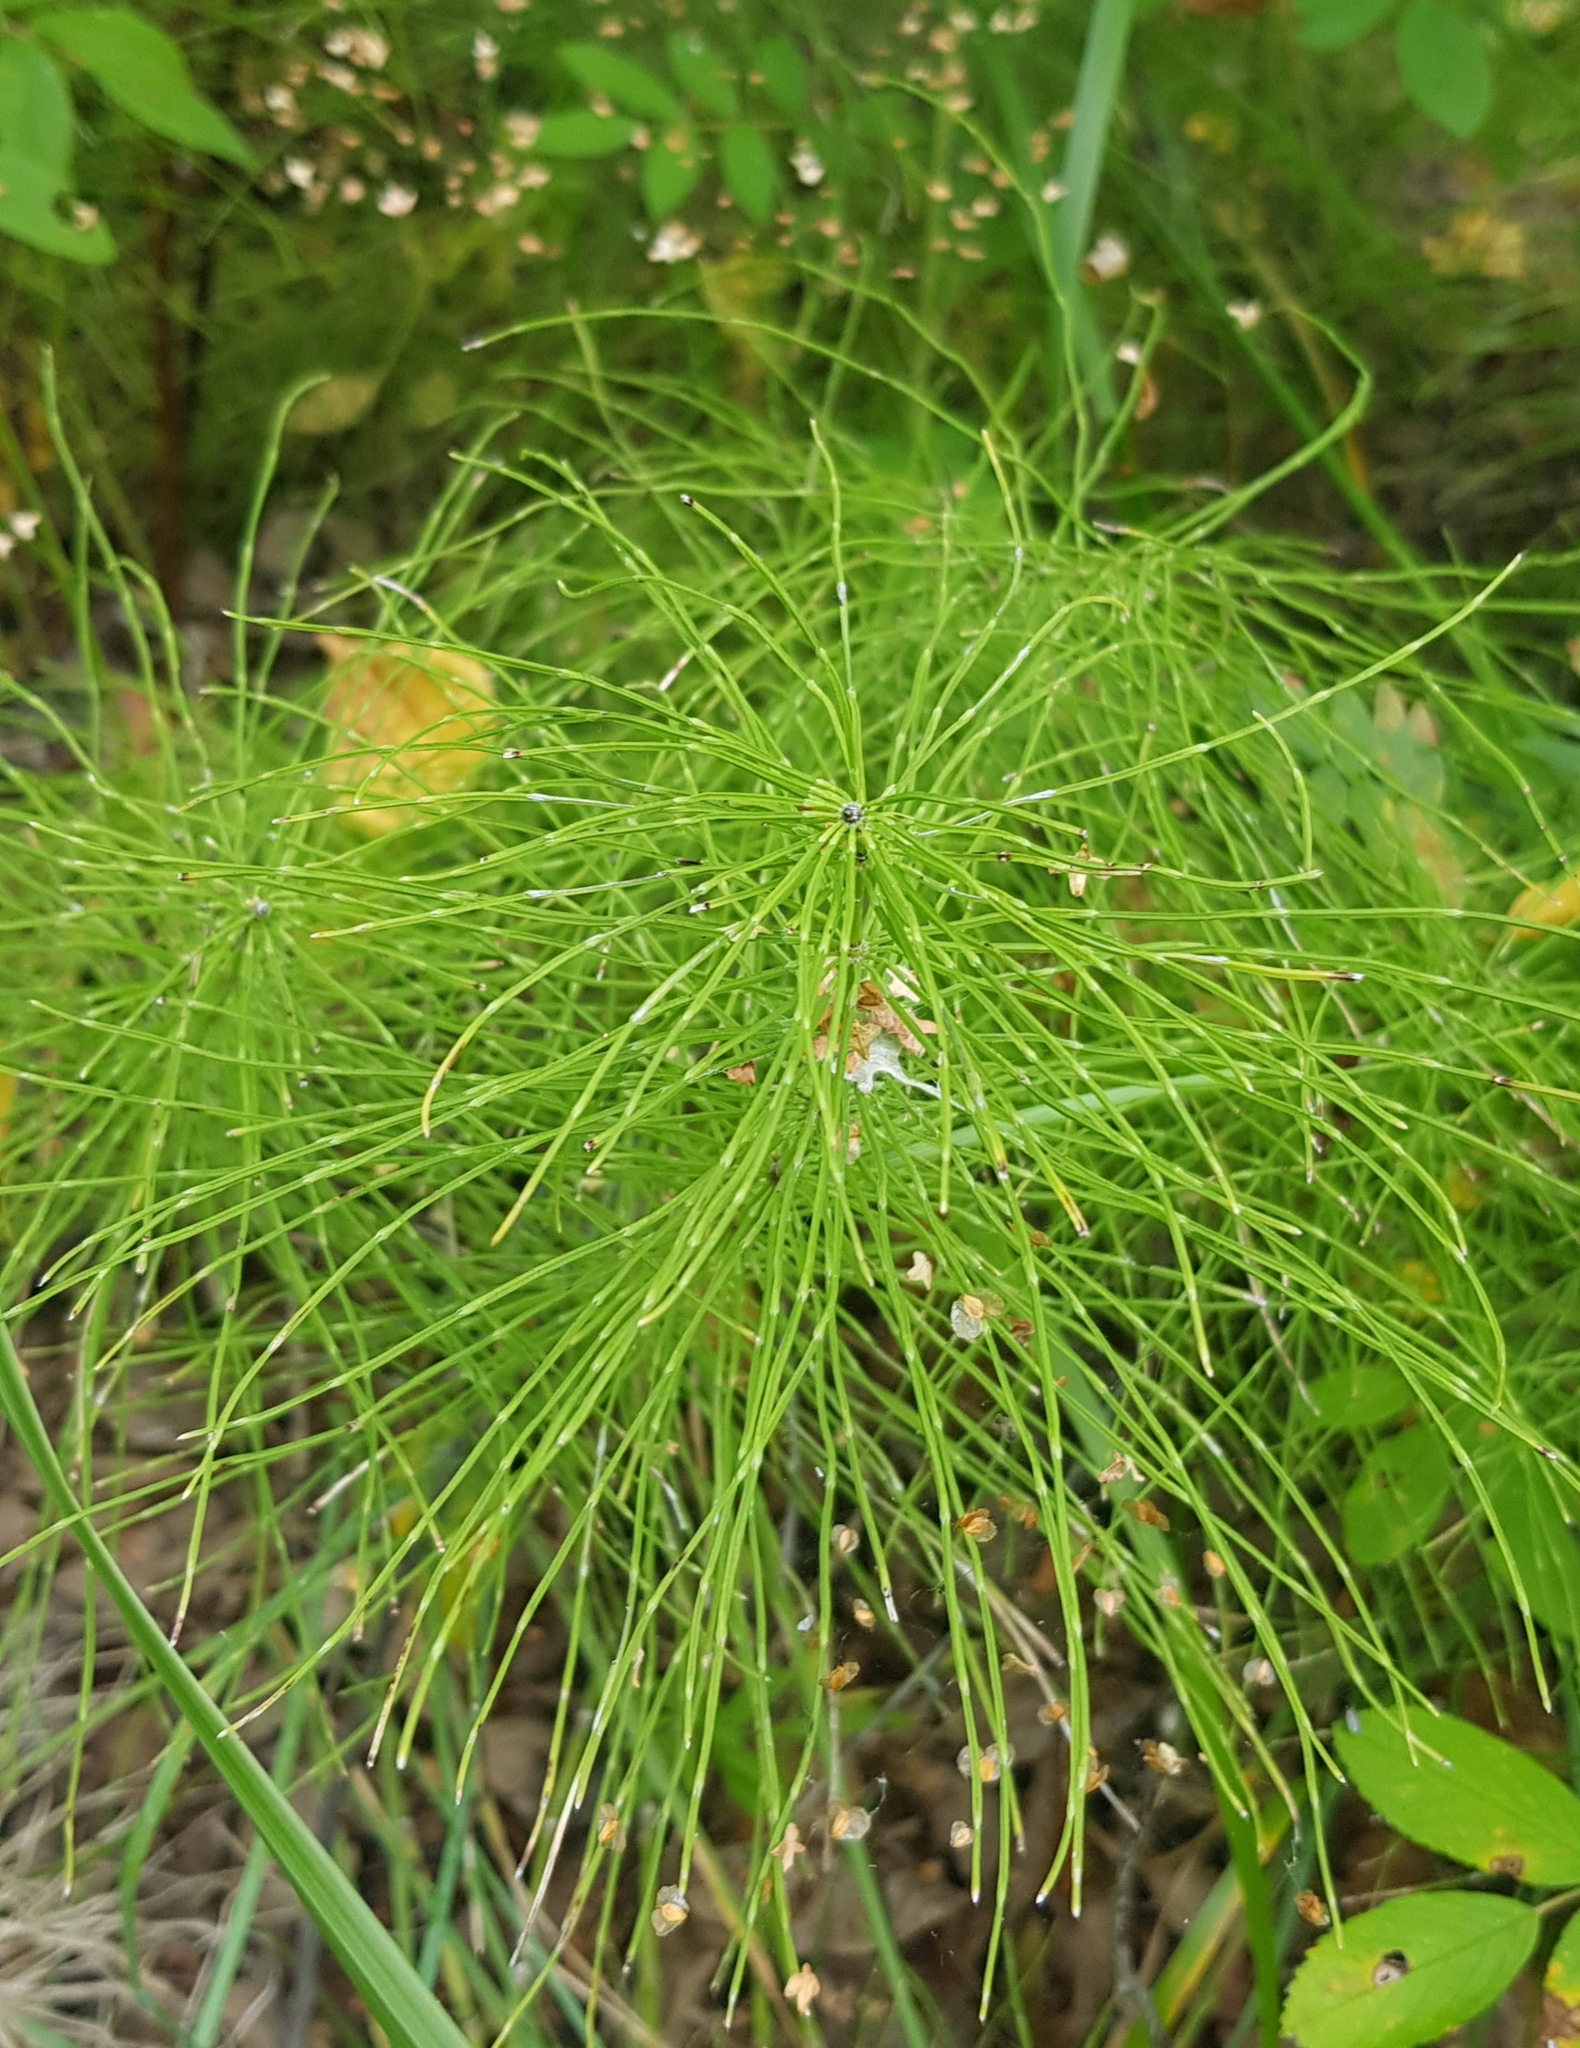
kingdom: Plantae
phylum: Tracheophyta
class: Polypodiopsida
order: Equisetales
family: Equisetaceae
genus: Equisetum
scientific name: Equisetum sylvaticum
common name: Wood horsetail
